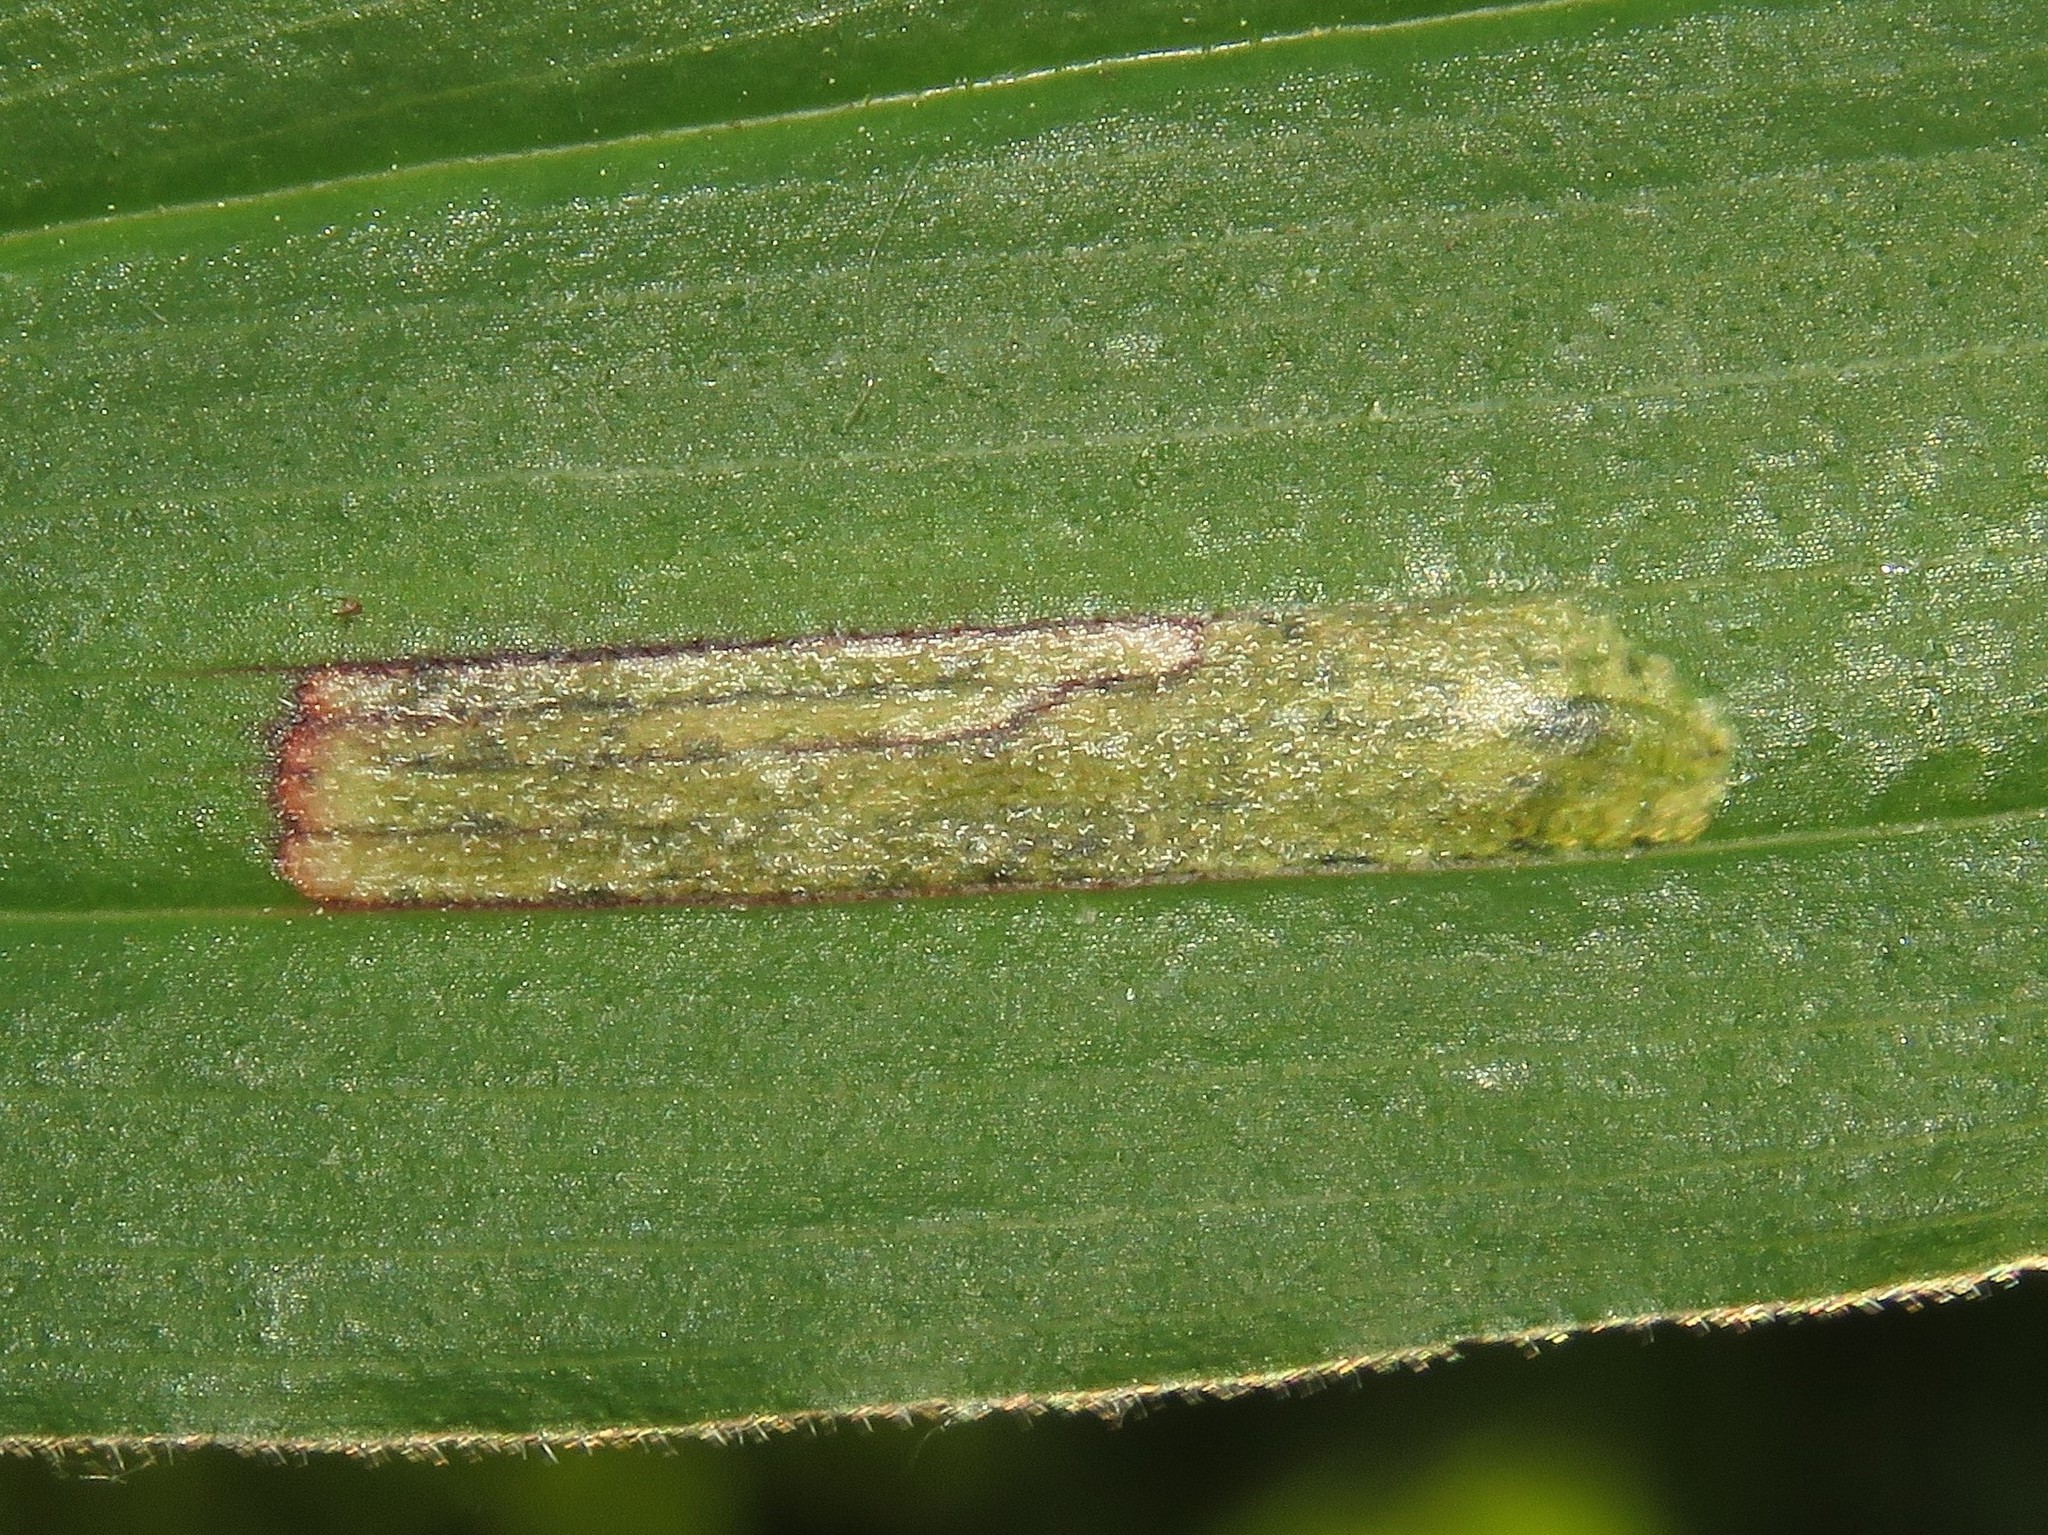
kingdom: Animalia
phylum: Arthropoda
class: Insecta
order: Diptera
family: Scathophagidae
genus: Synchysa
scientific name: Synchysa tricincta
